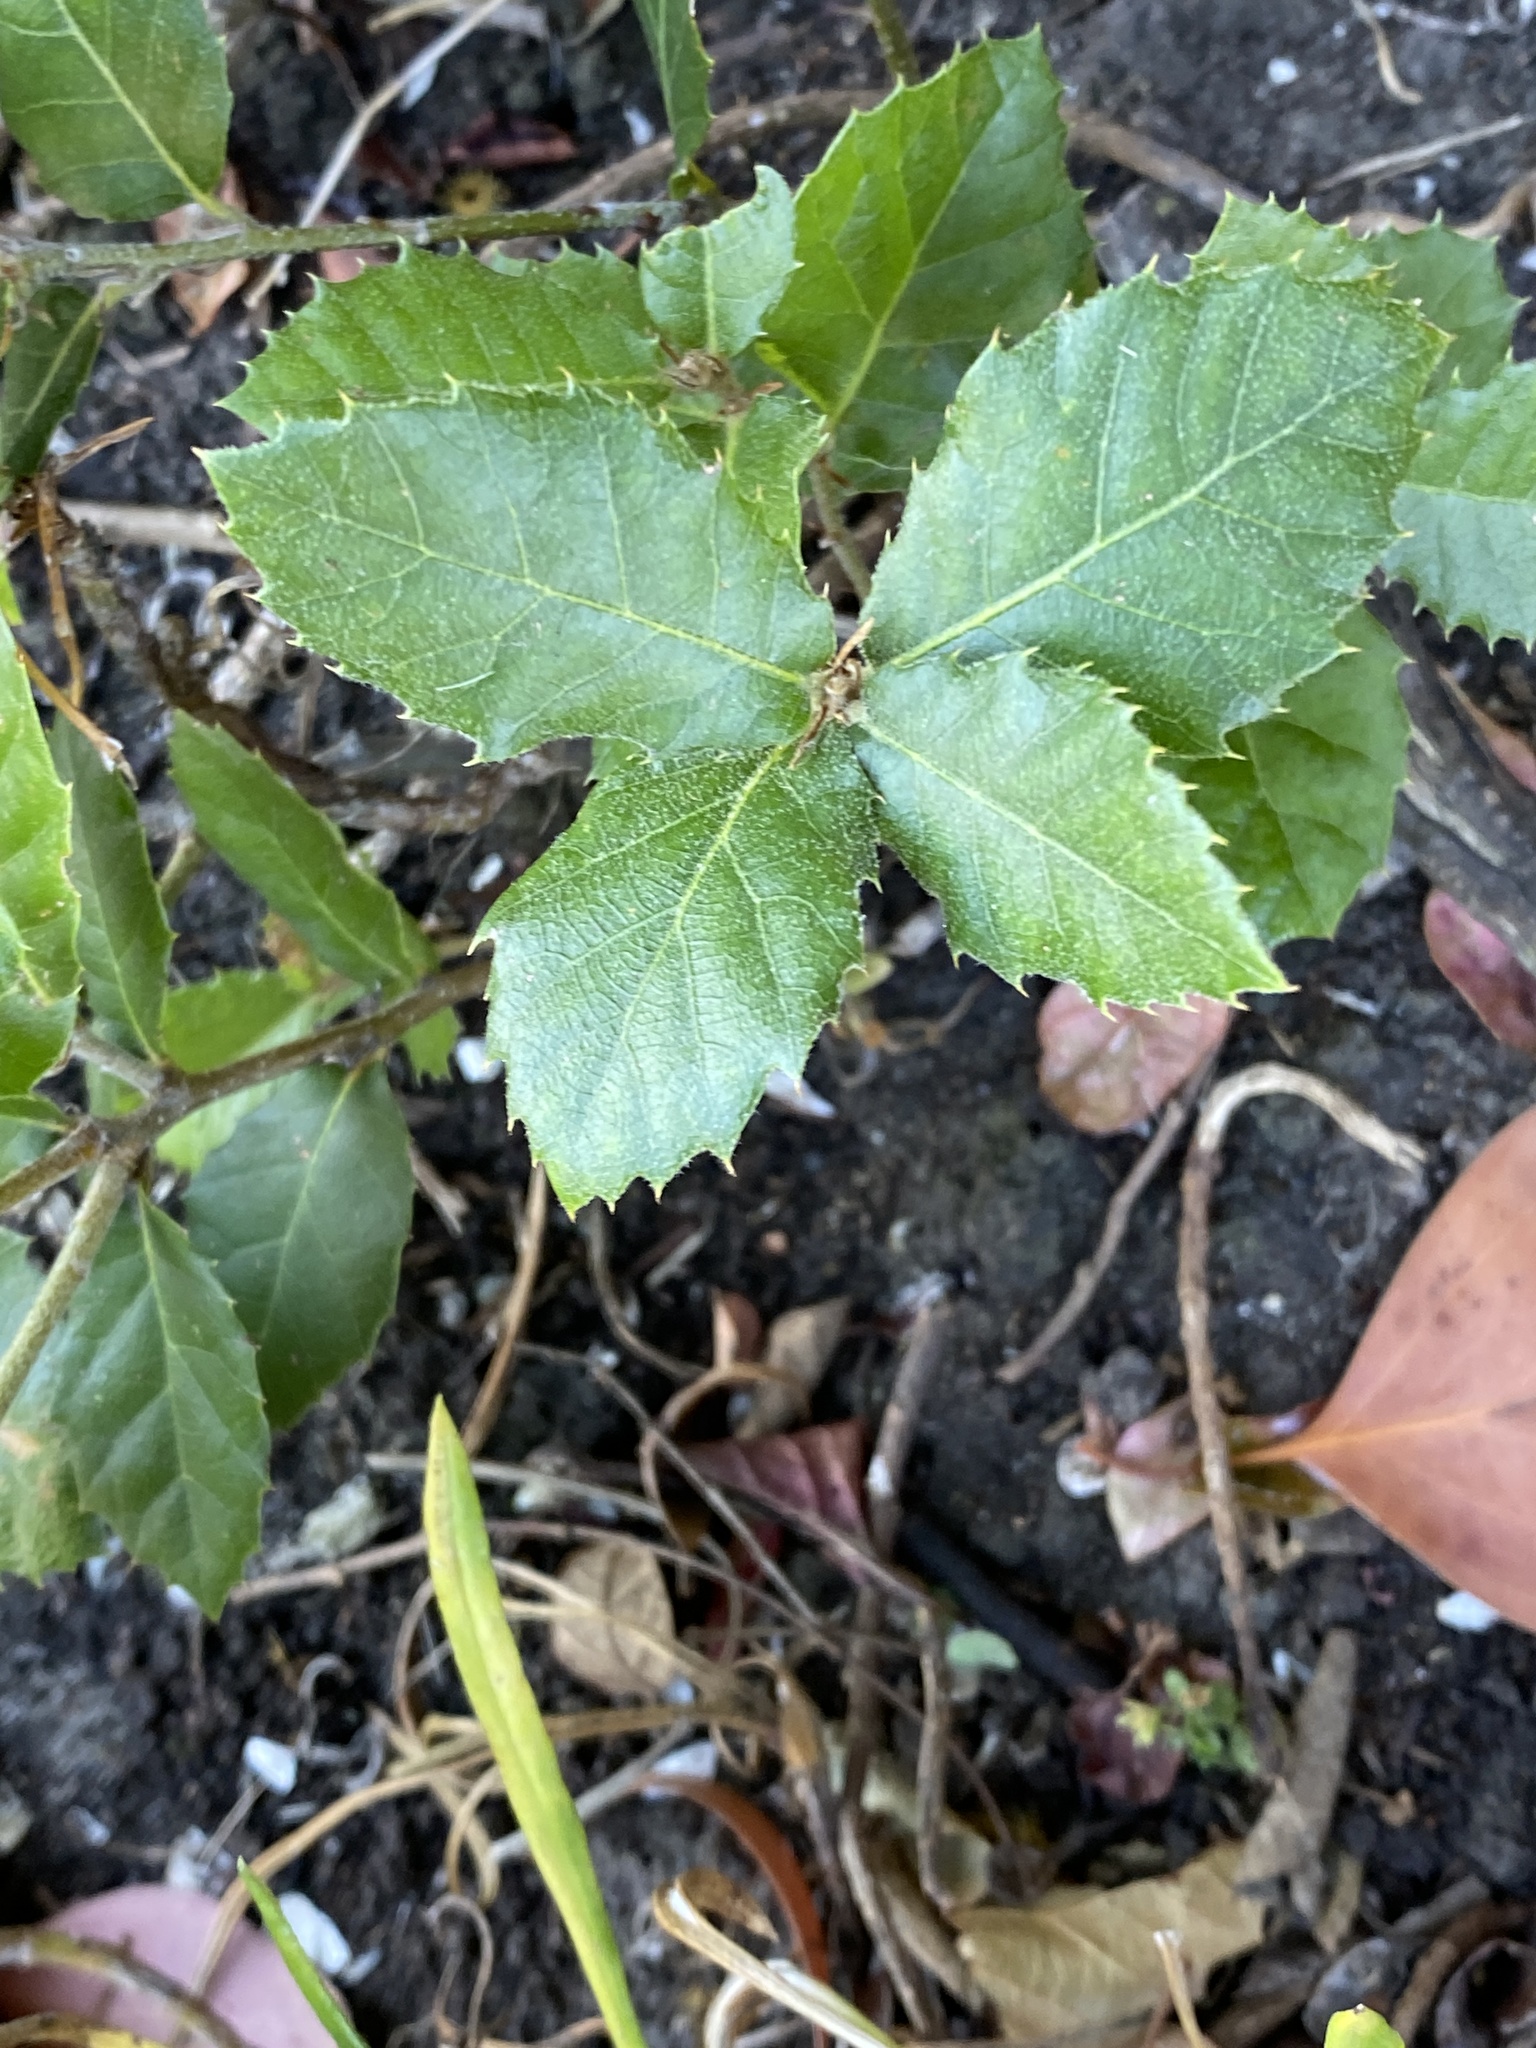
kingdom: Plantae
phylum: Tracheophyta
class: Magnoliopsida
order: Fagales
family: Fagaceae
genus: Quercus
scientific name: Quercus agrifolia
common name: California live oak
